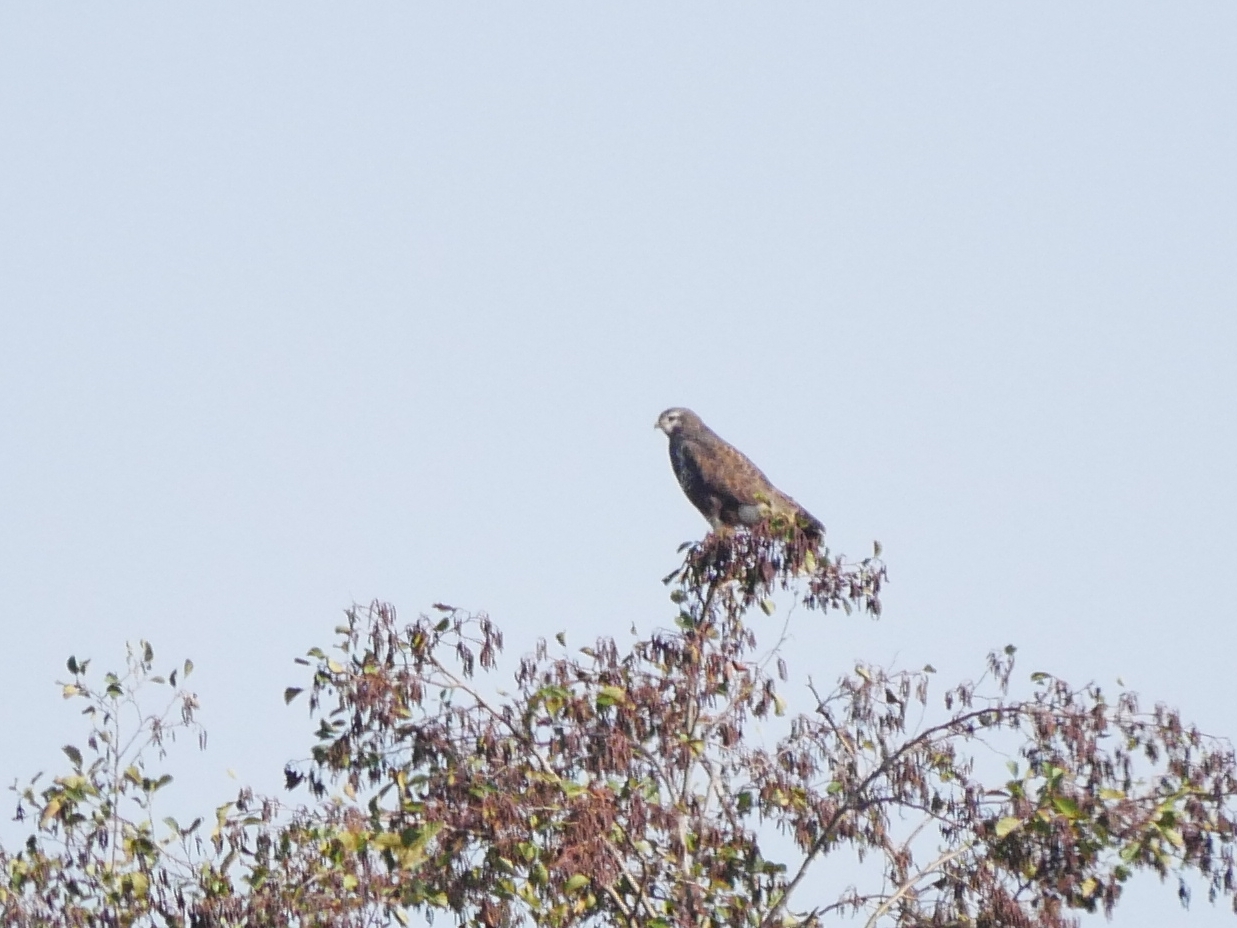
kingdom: Animalia
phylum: Chordata
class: Aves
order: Accipitriformes
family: Accipitridae
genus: Buteo
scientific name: Buteo buteo
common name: Common buzzard
